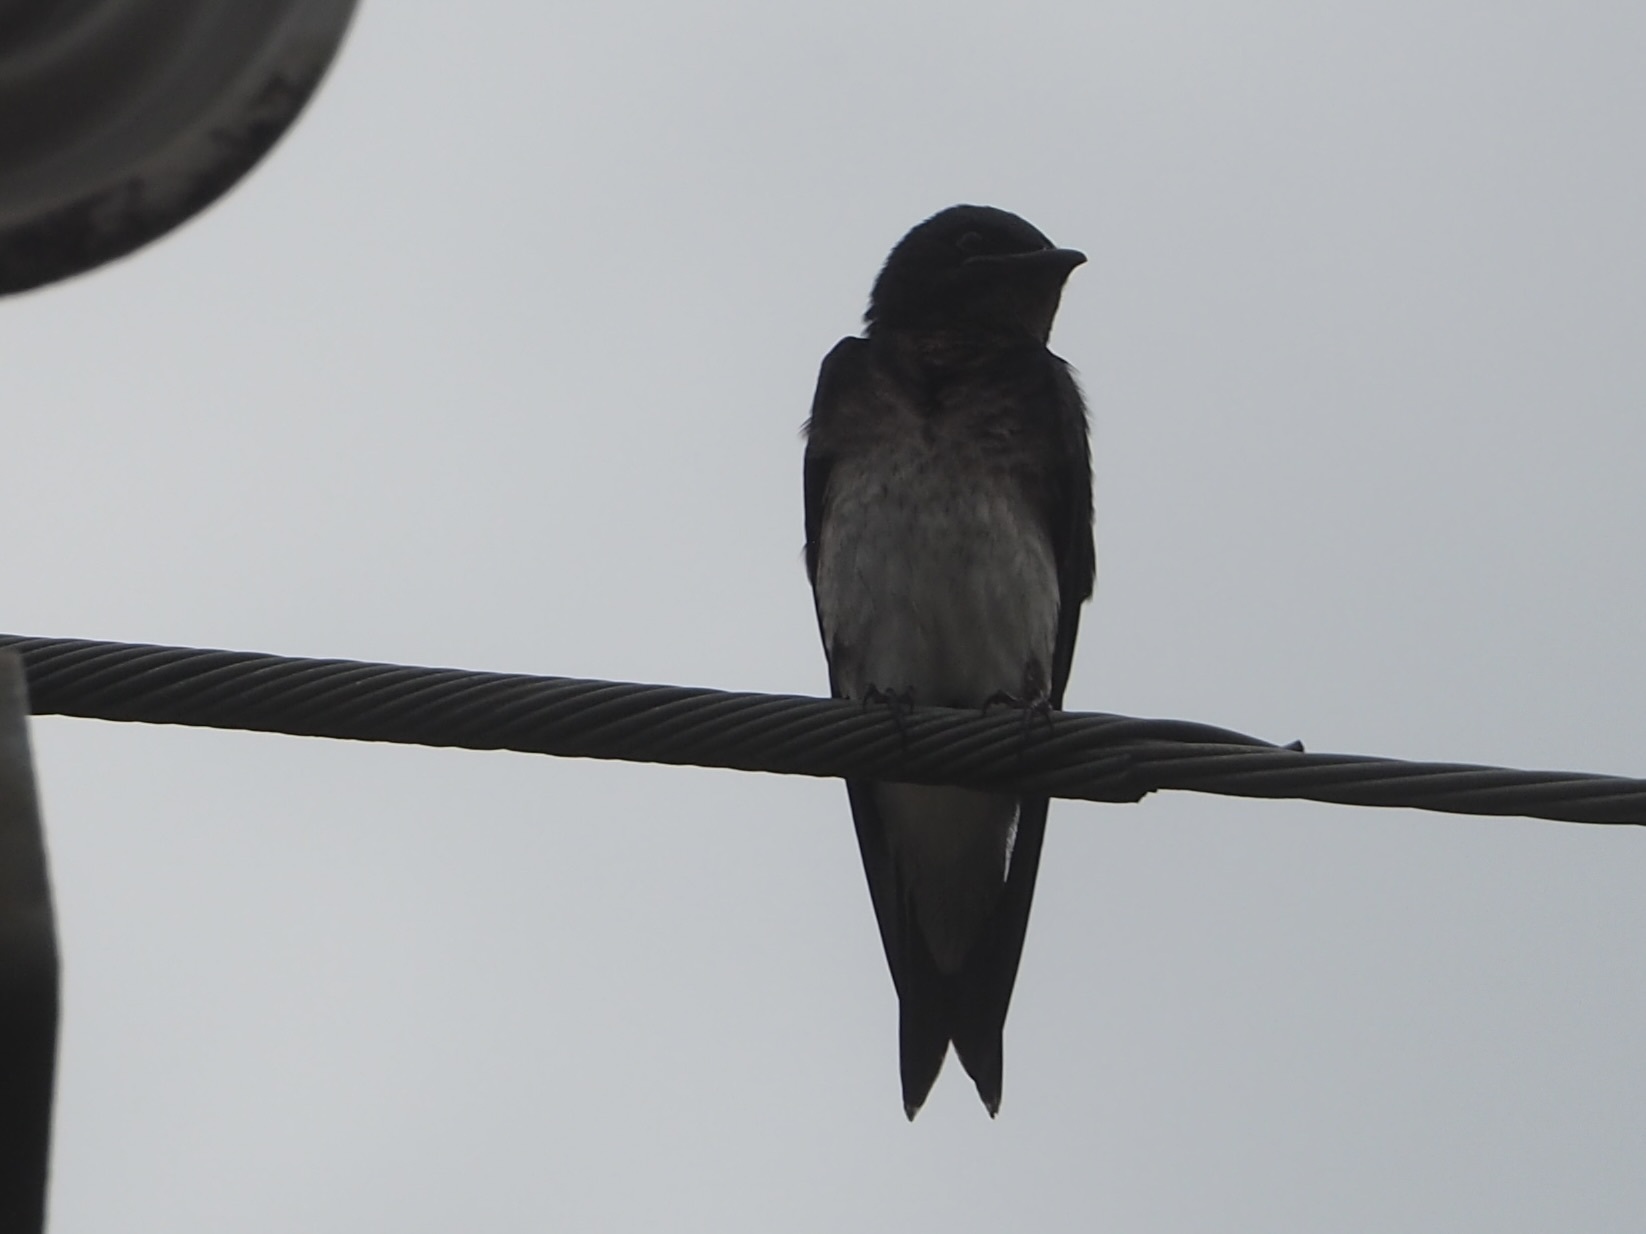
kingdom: Animalia
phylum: Chordata
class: Aves
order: Passeriformes
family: Hirundinidae
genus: Progne
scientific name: Progne chalybea
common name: Grey-breasted martin
